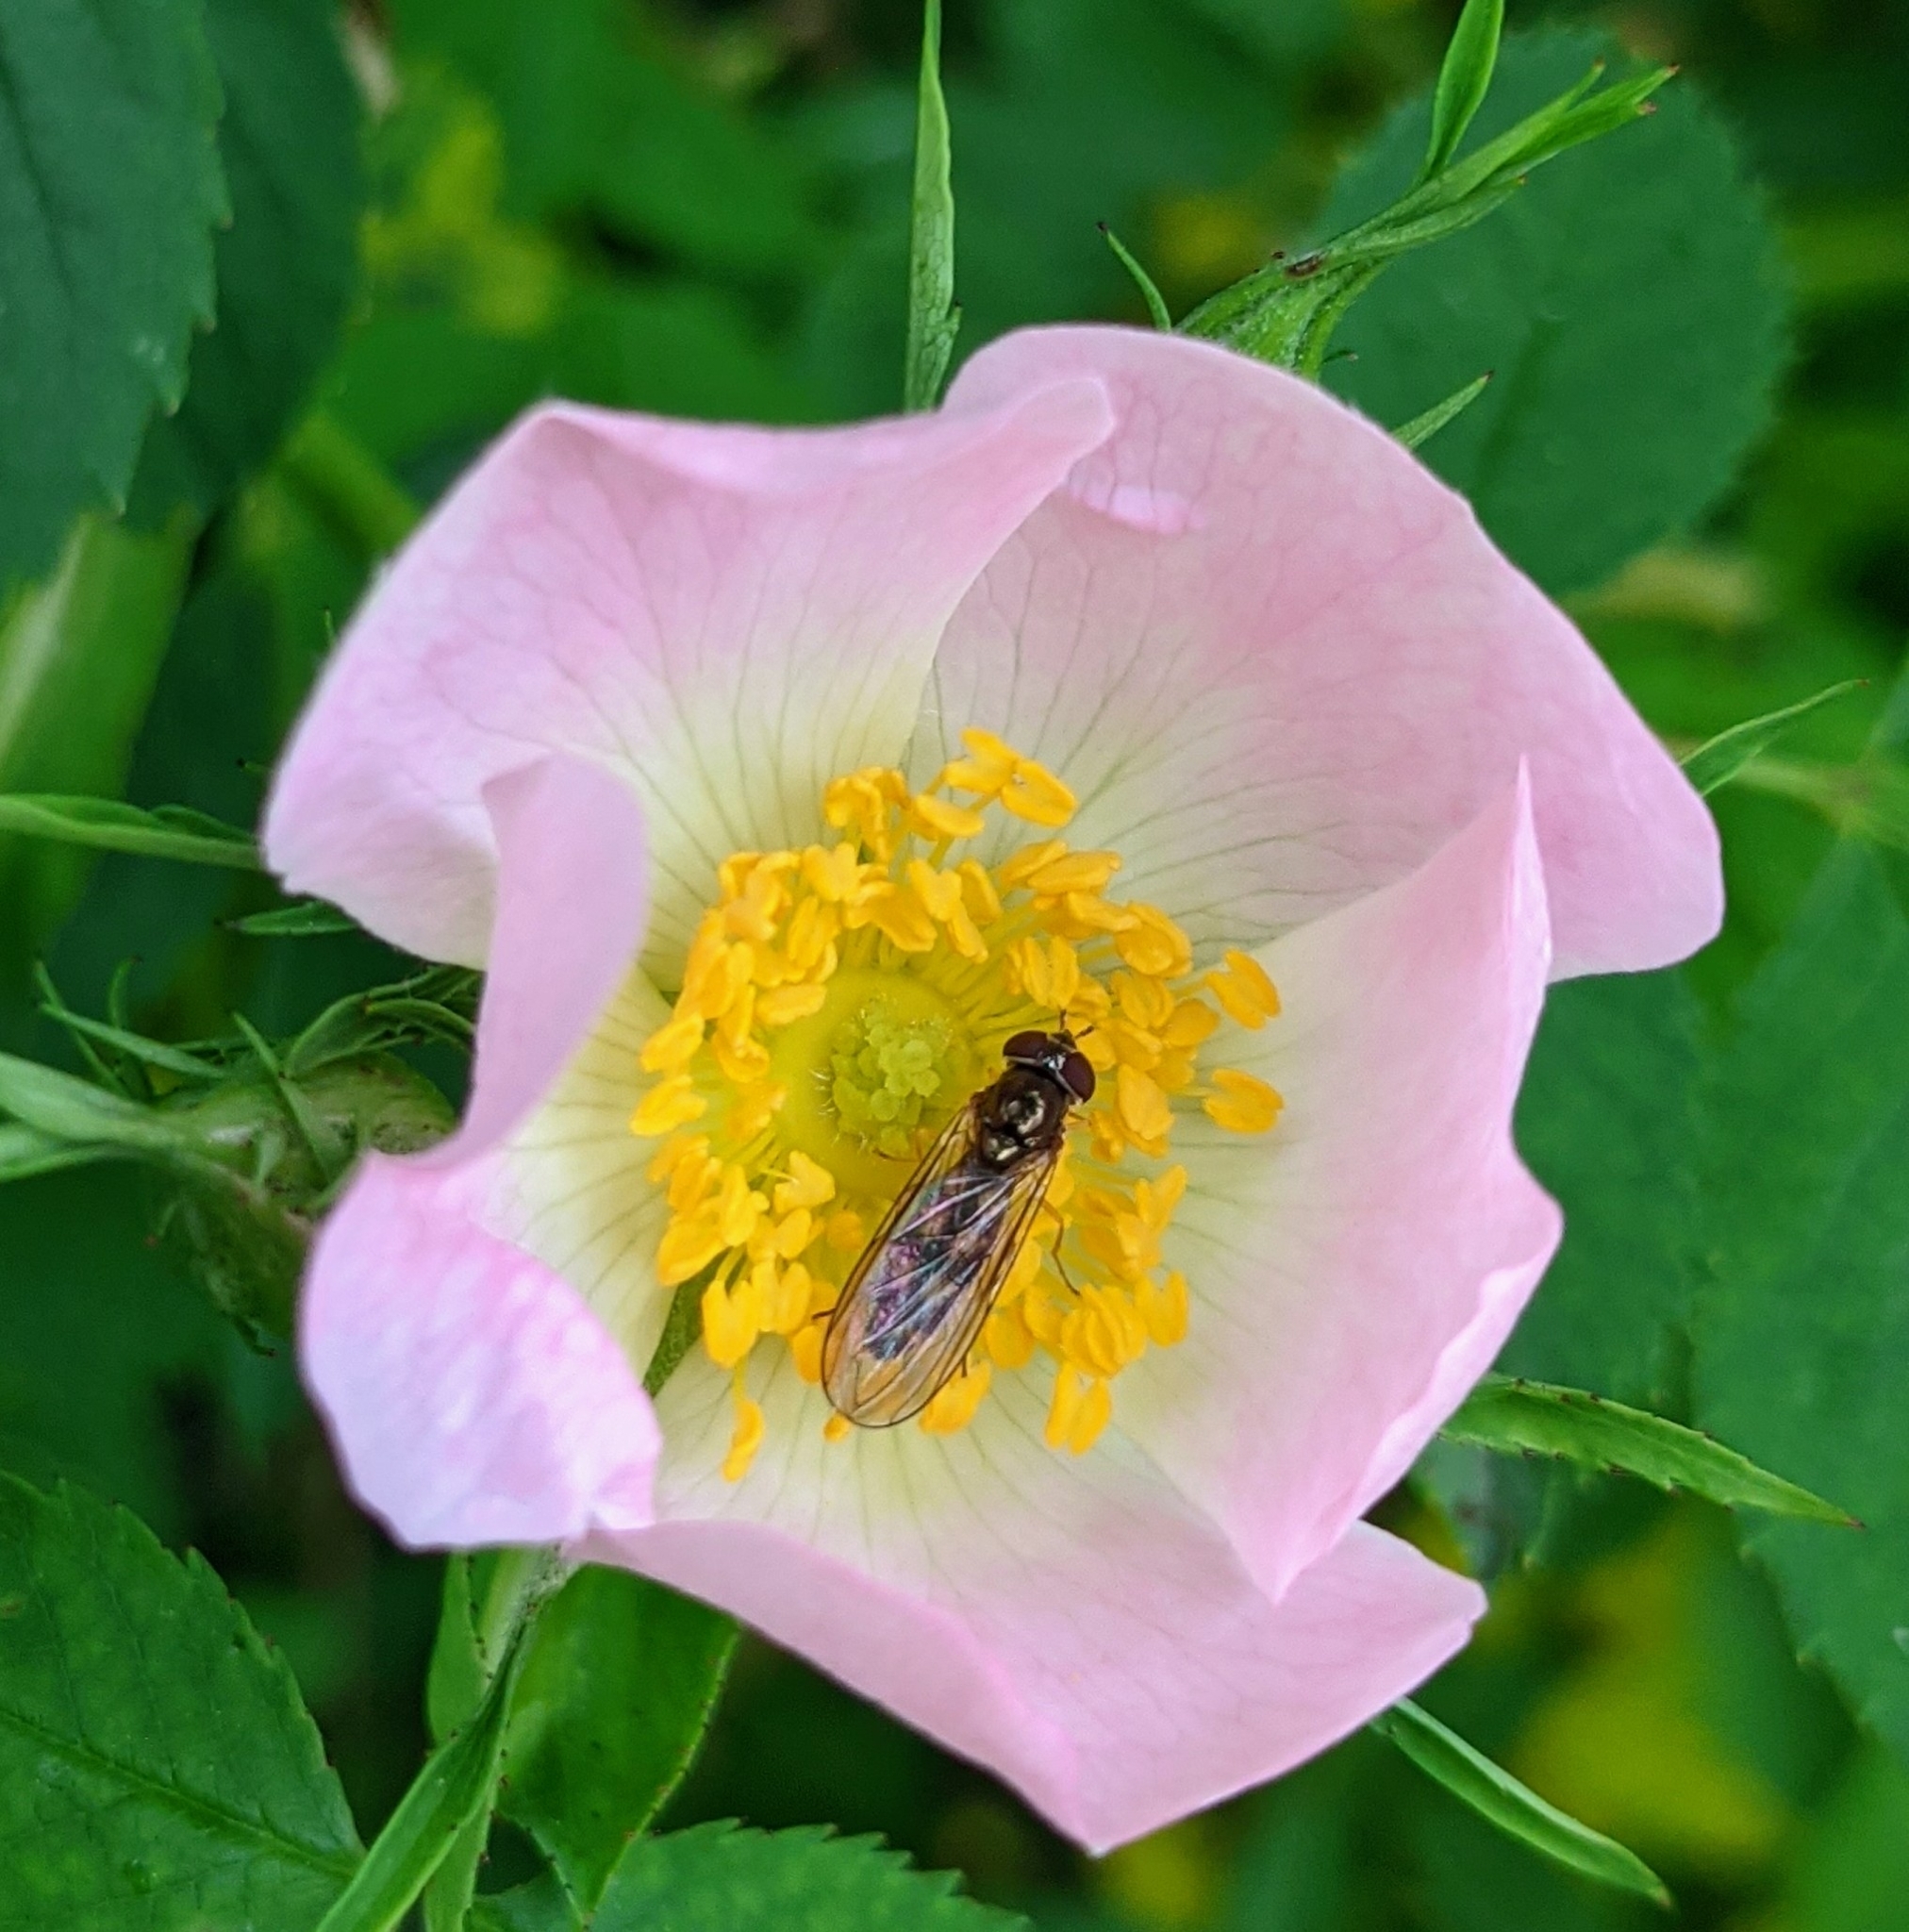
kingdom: Animalia
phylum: Arthropoda
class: Insecta
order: Diptera
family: Syrphidae
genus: Melanostoma
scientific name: Melanostoma
